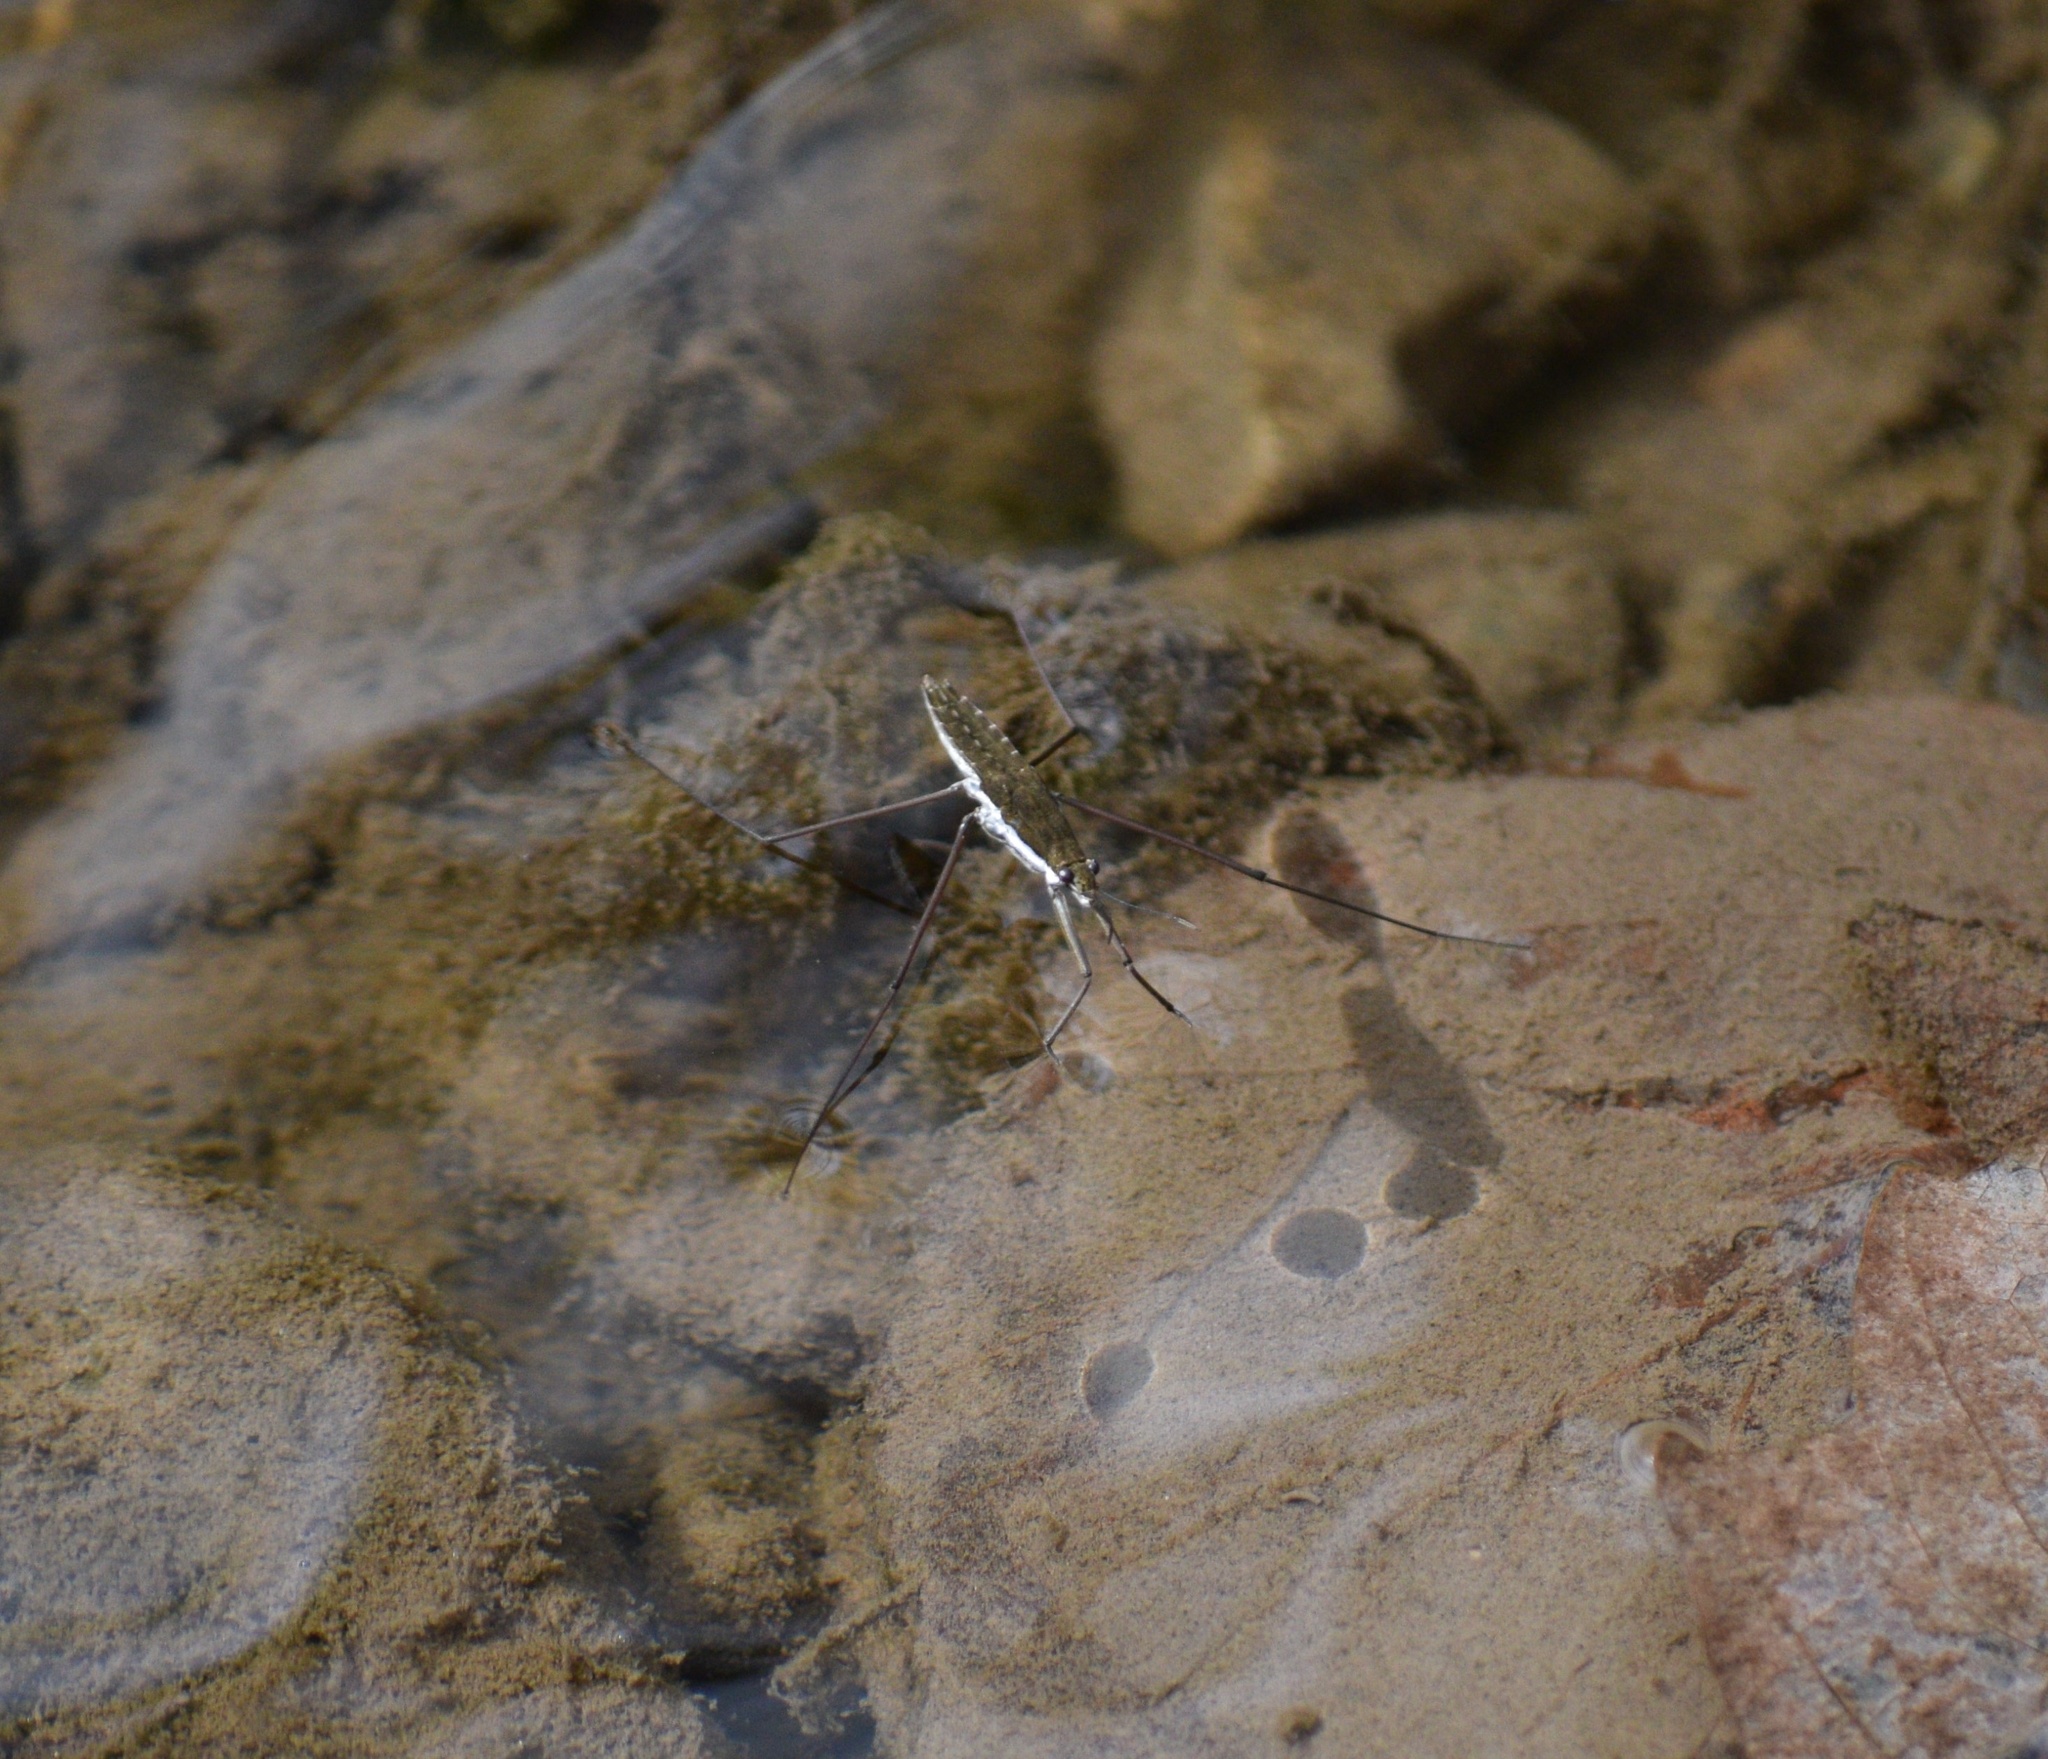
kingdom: Animalia
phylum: Arthropoda
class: Insecta
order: Hemiptera
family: Gerridae
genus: Aquarius
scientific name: Aquarius remigis
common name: Common water strider
